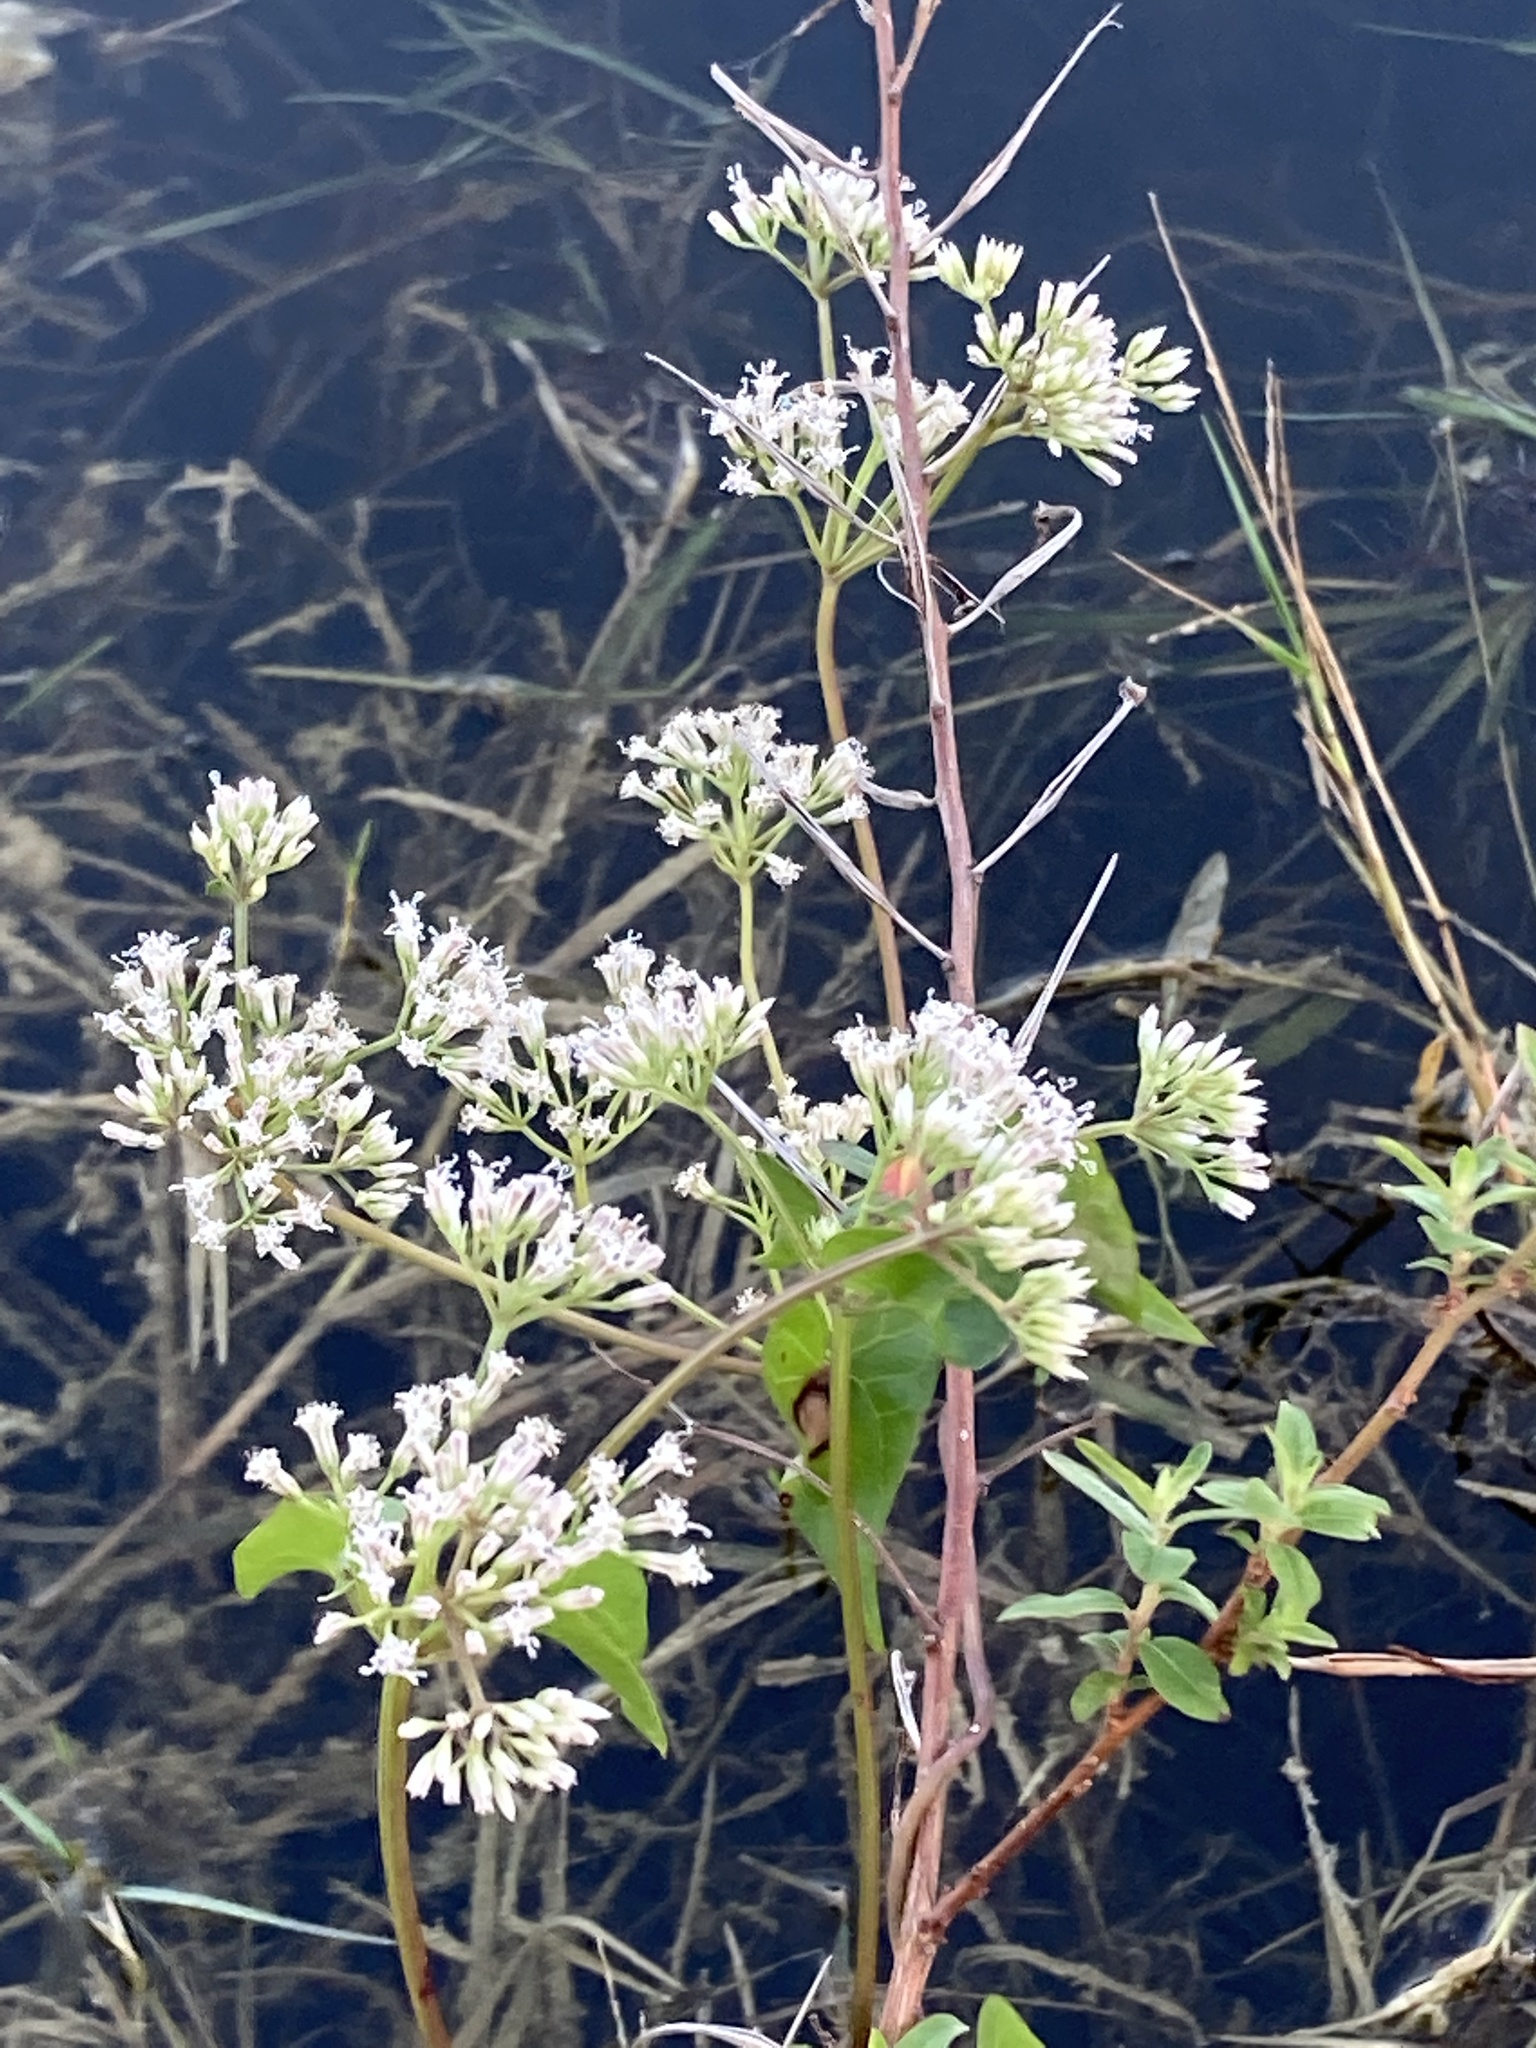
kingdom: Plantae
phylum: Tracheophyta
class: Magnoliopsida
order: Asterales
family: Asteraceae
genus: Mikania
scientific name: Mikania scandens
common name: Climbing hempvine
